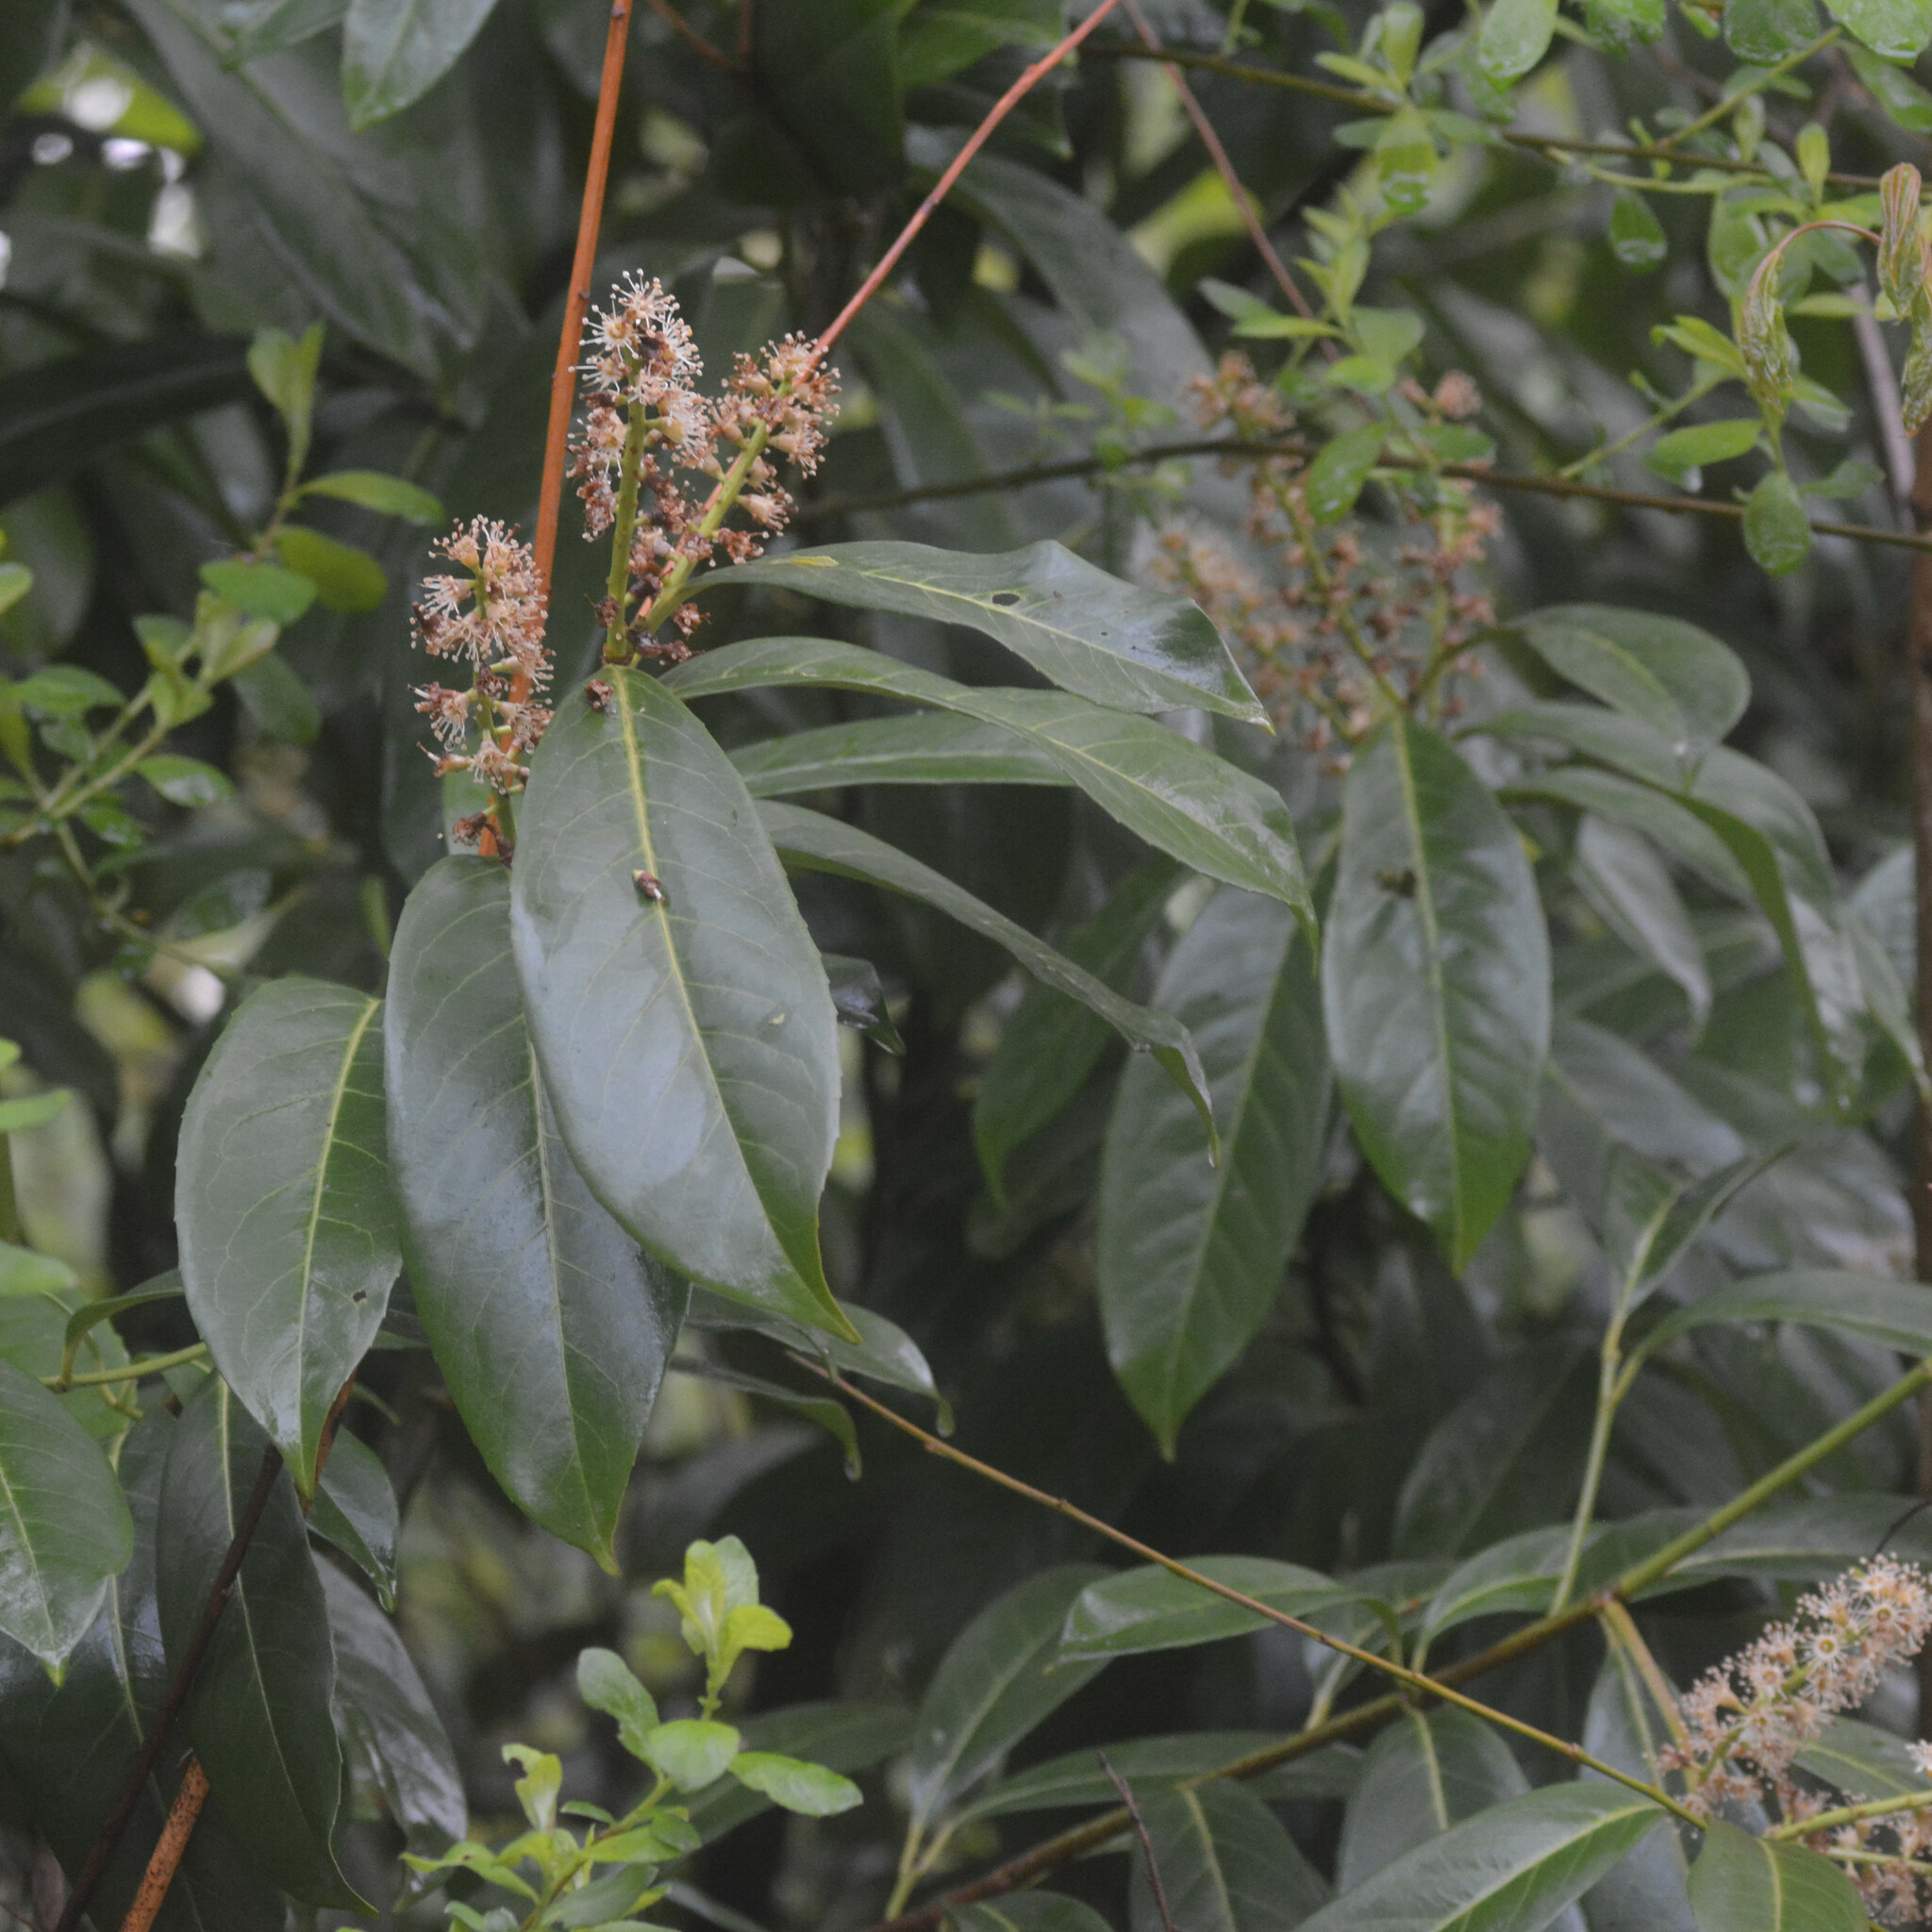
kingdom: Plantae
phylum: Tracheophyta
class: Magnoliopsida
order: Rosales
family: Rosaceae
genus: Prunus
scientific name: Prunus laurocerasus
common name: Cherry laurel
